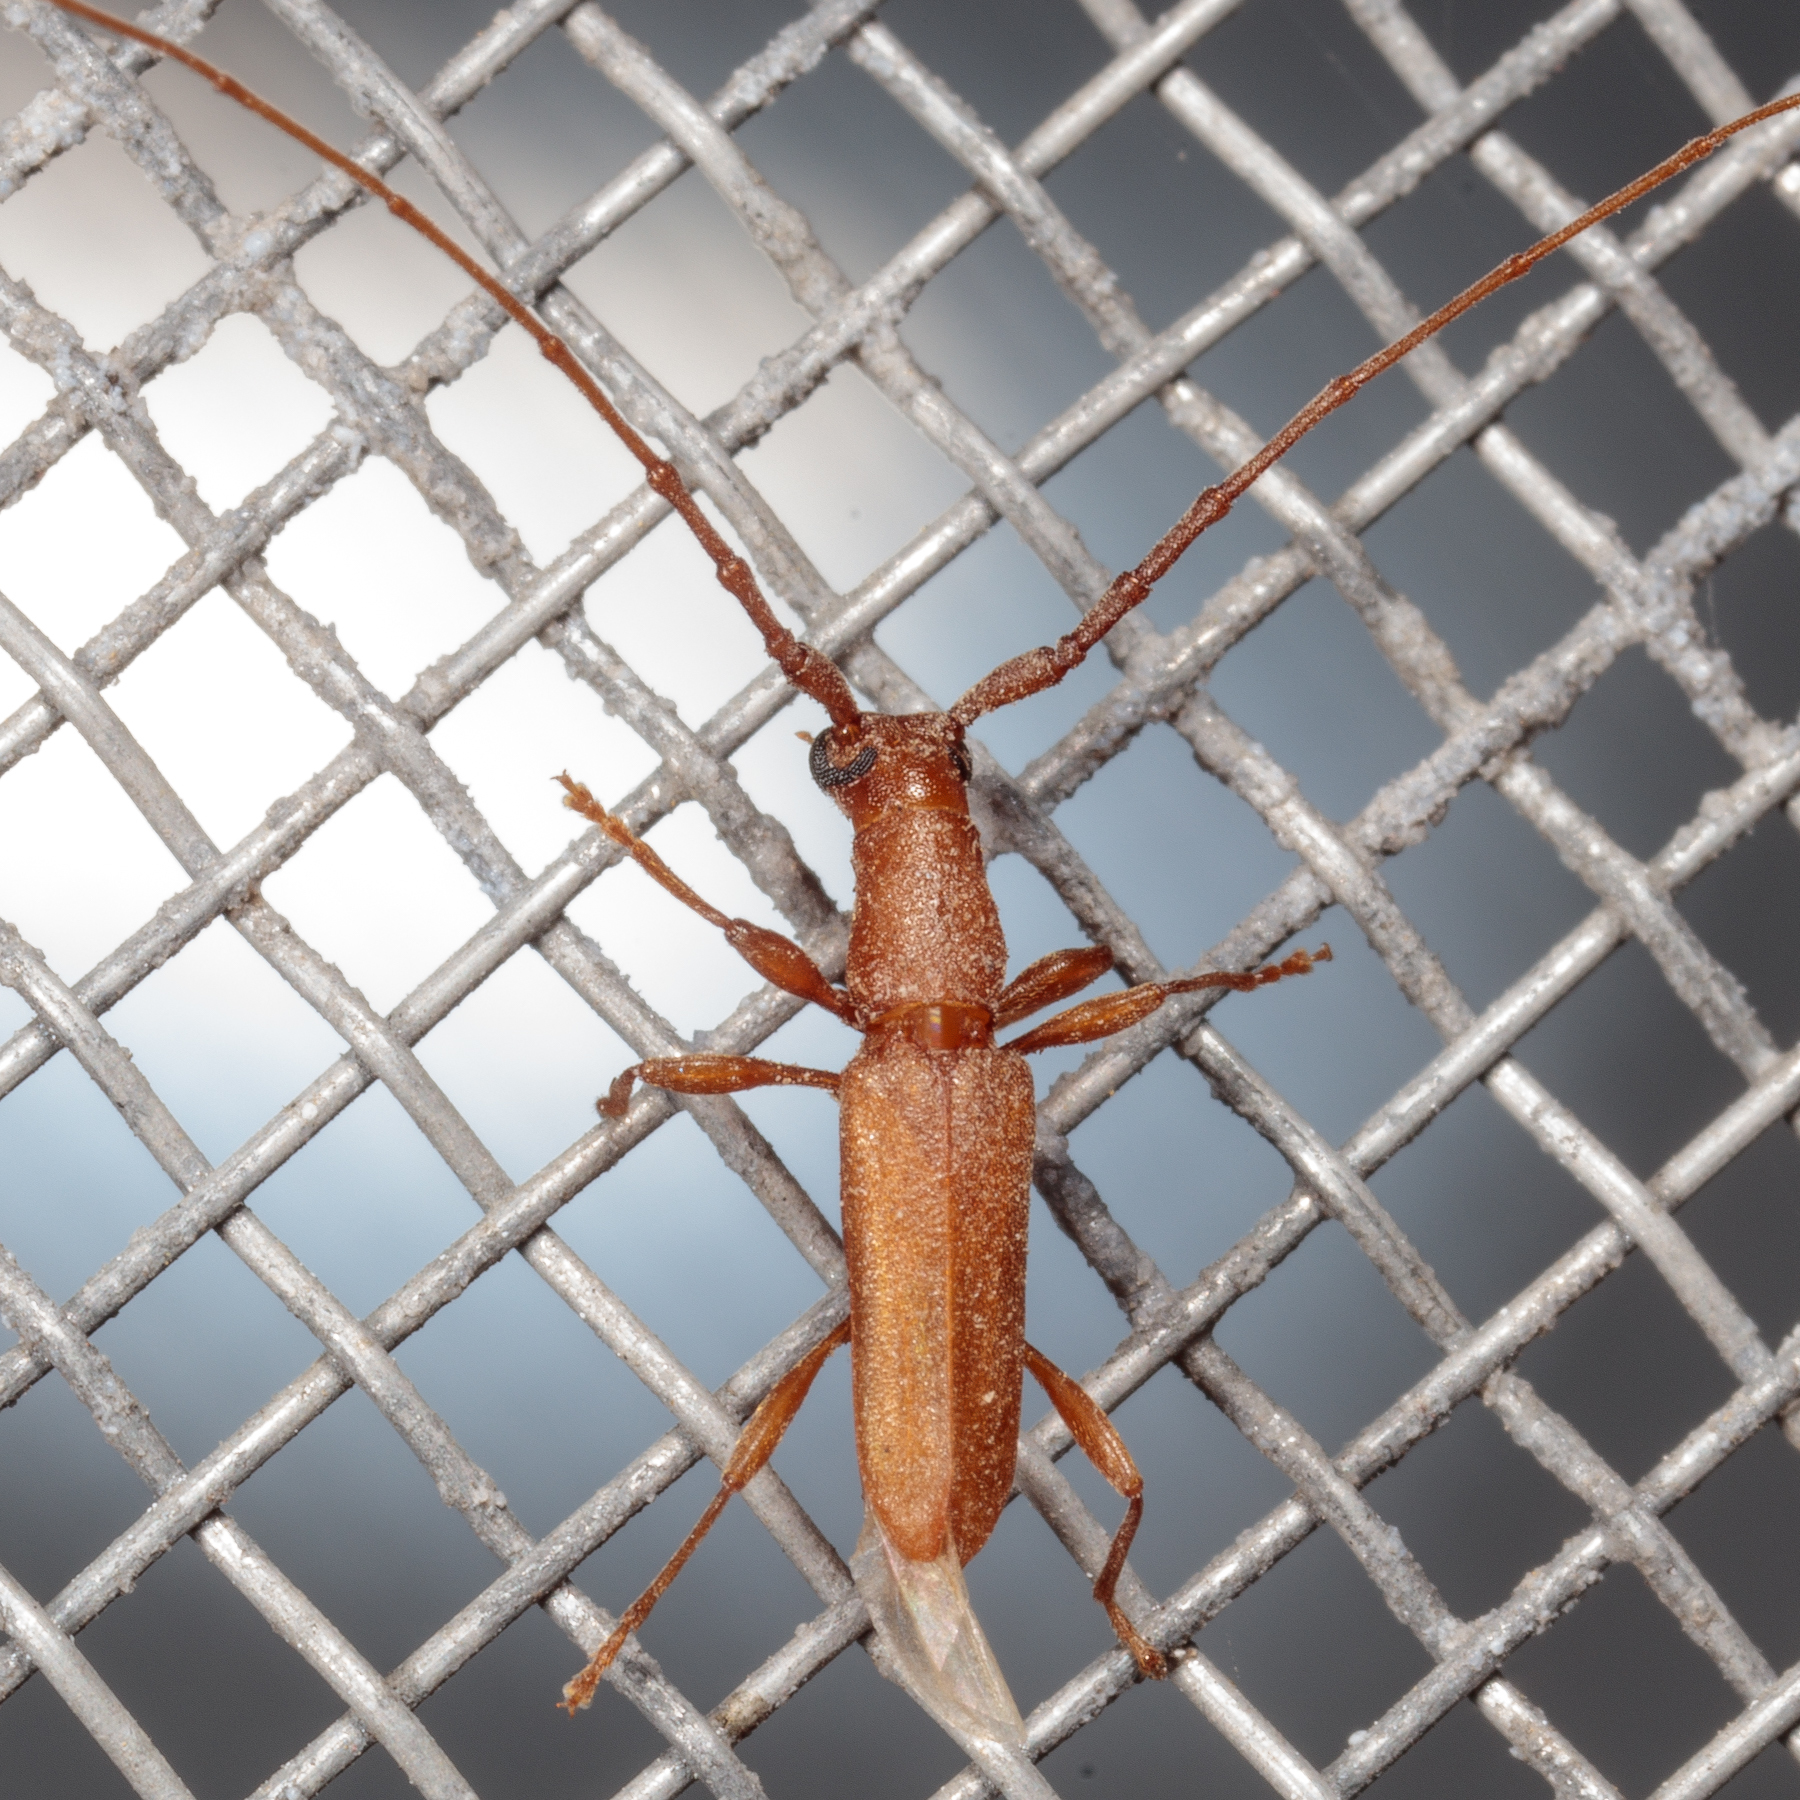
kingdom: Animalia
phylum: Arthropoda
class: Insecta
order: Coleoptera
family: Cerambycidae
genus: Hypexilis
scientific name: Hypexilis pallida
